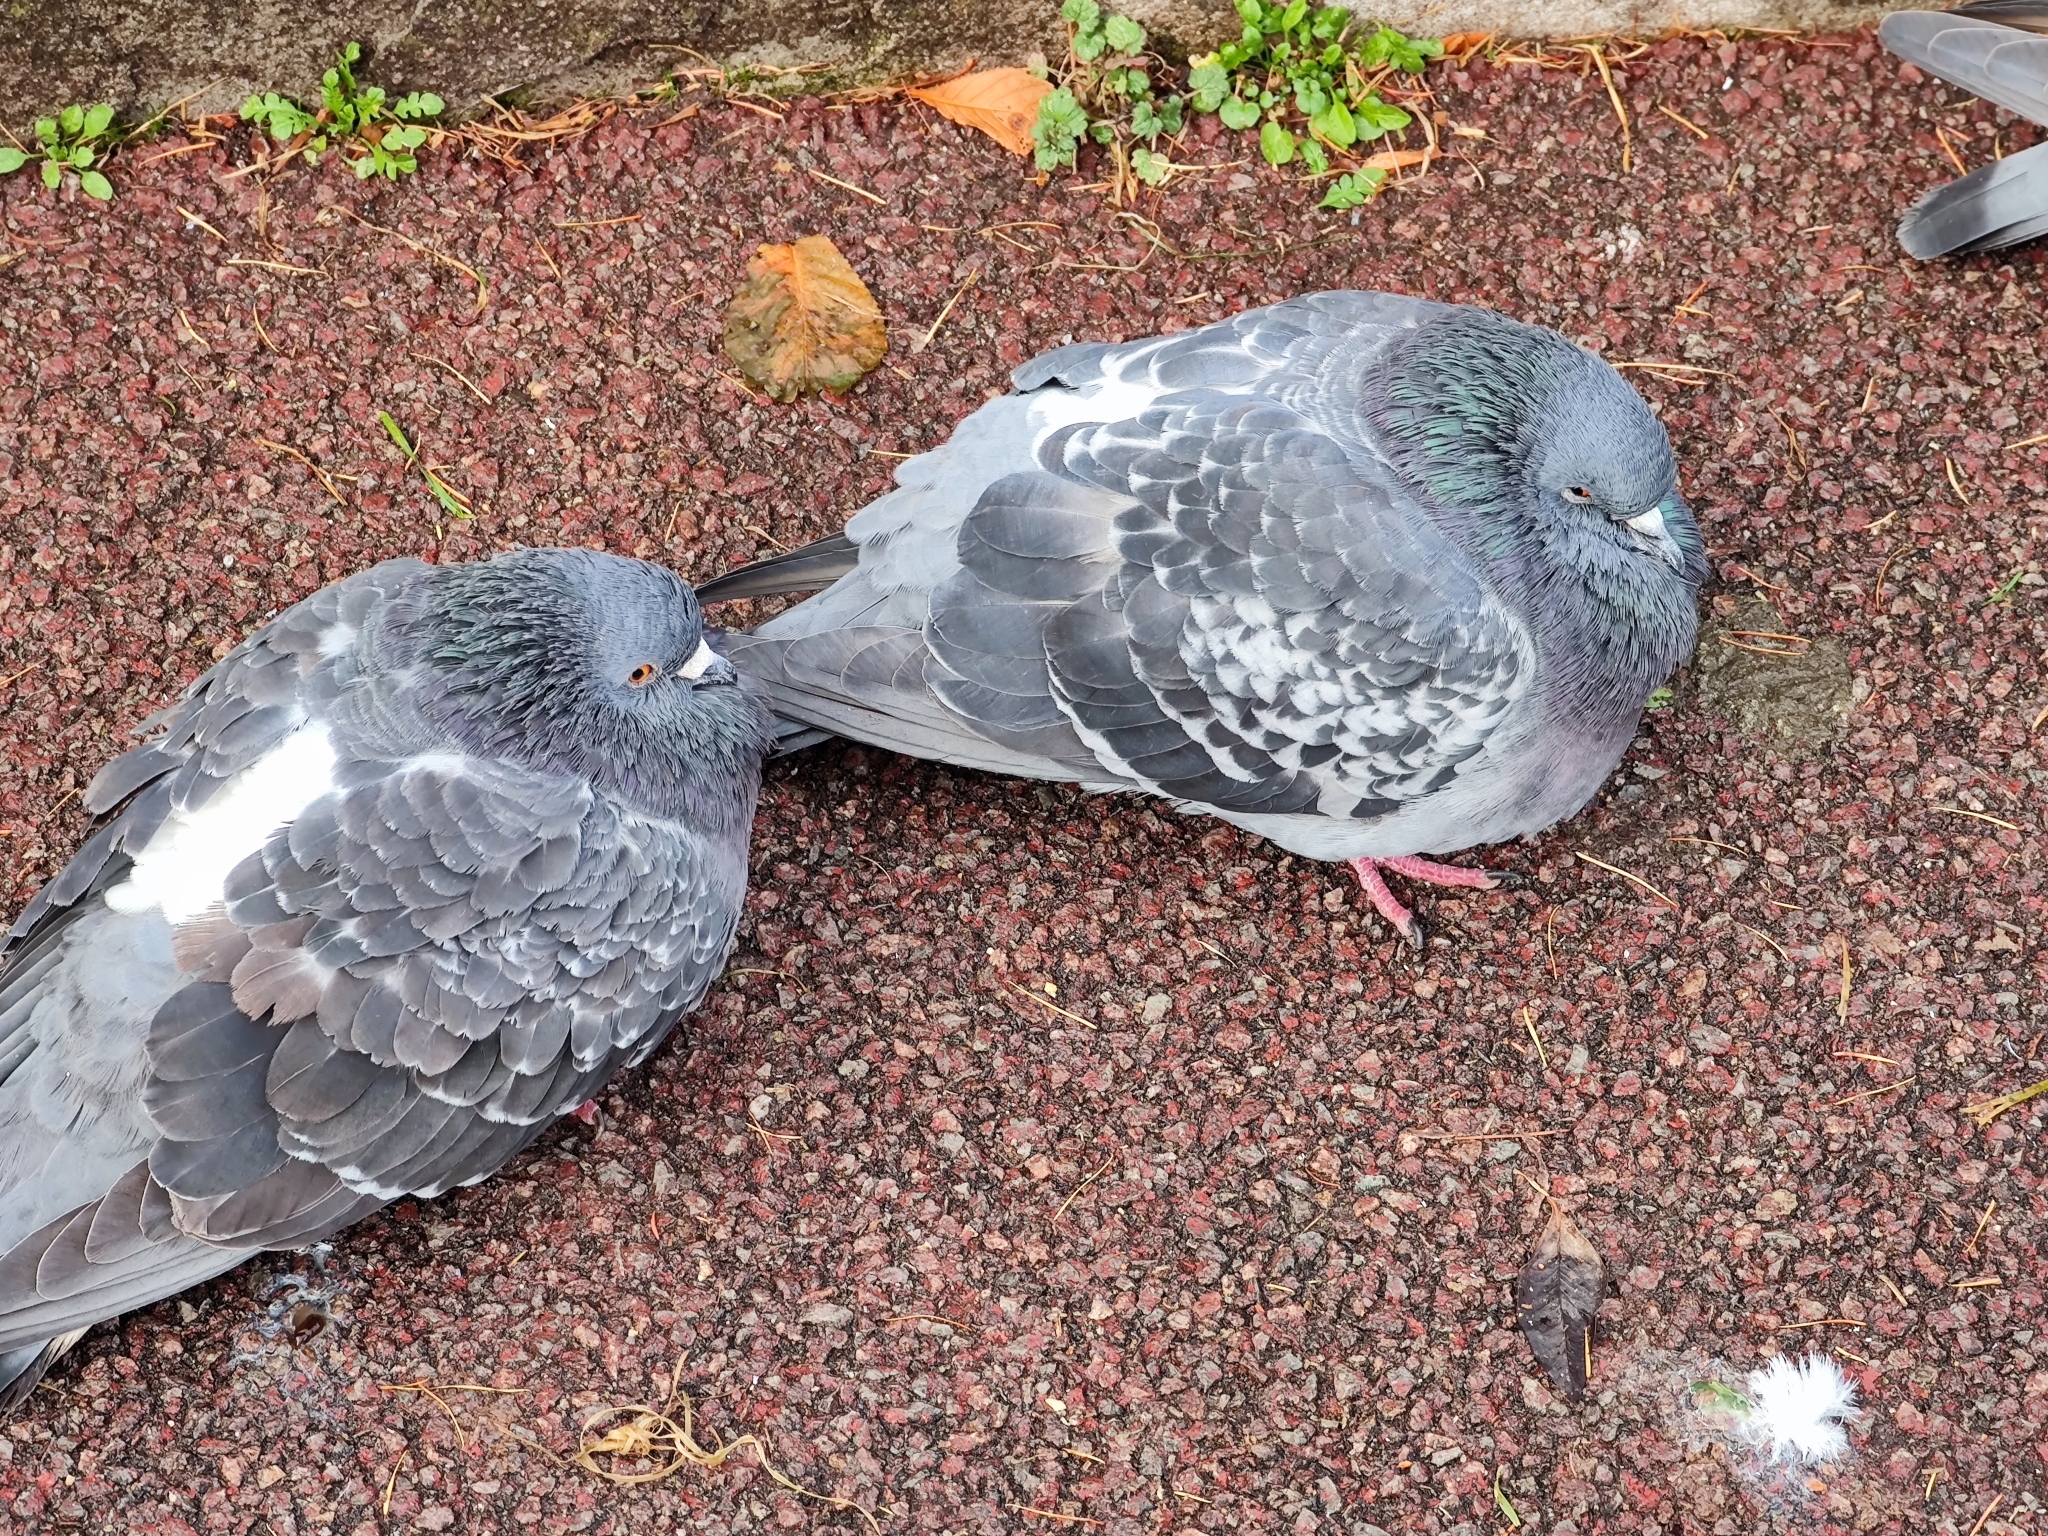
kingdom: Animalia
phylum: Chordata
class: Aves
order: Columbiformes
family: Columbidae
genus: Columba
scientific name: Columba livia
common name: Rock pigeon
